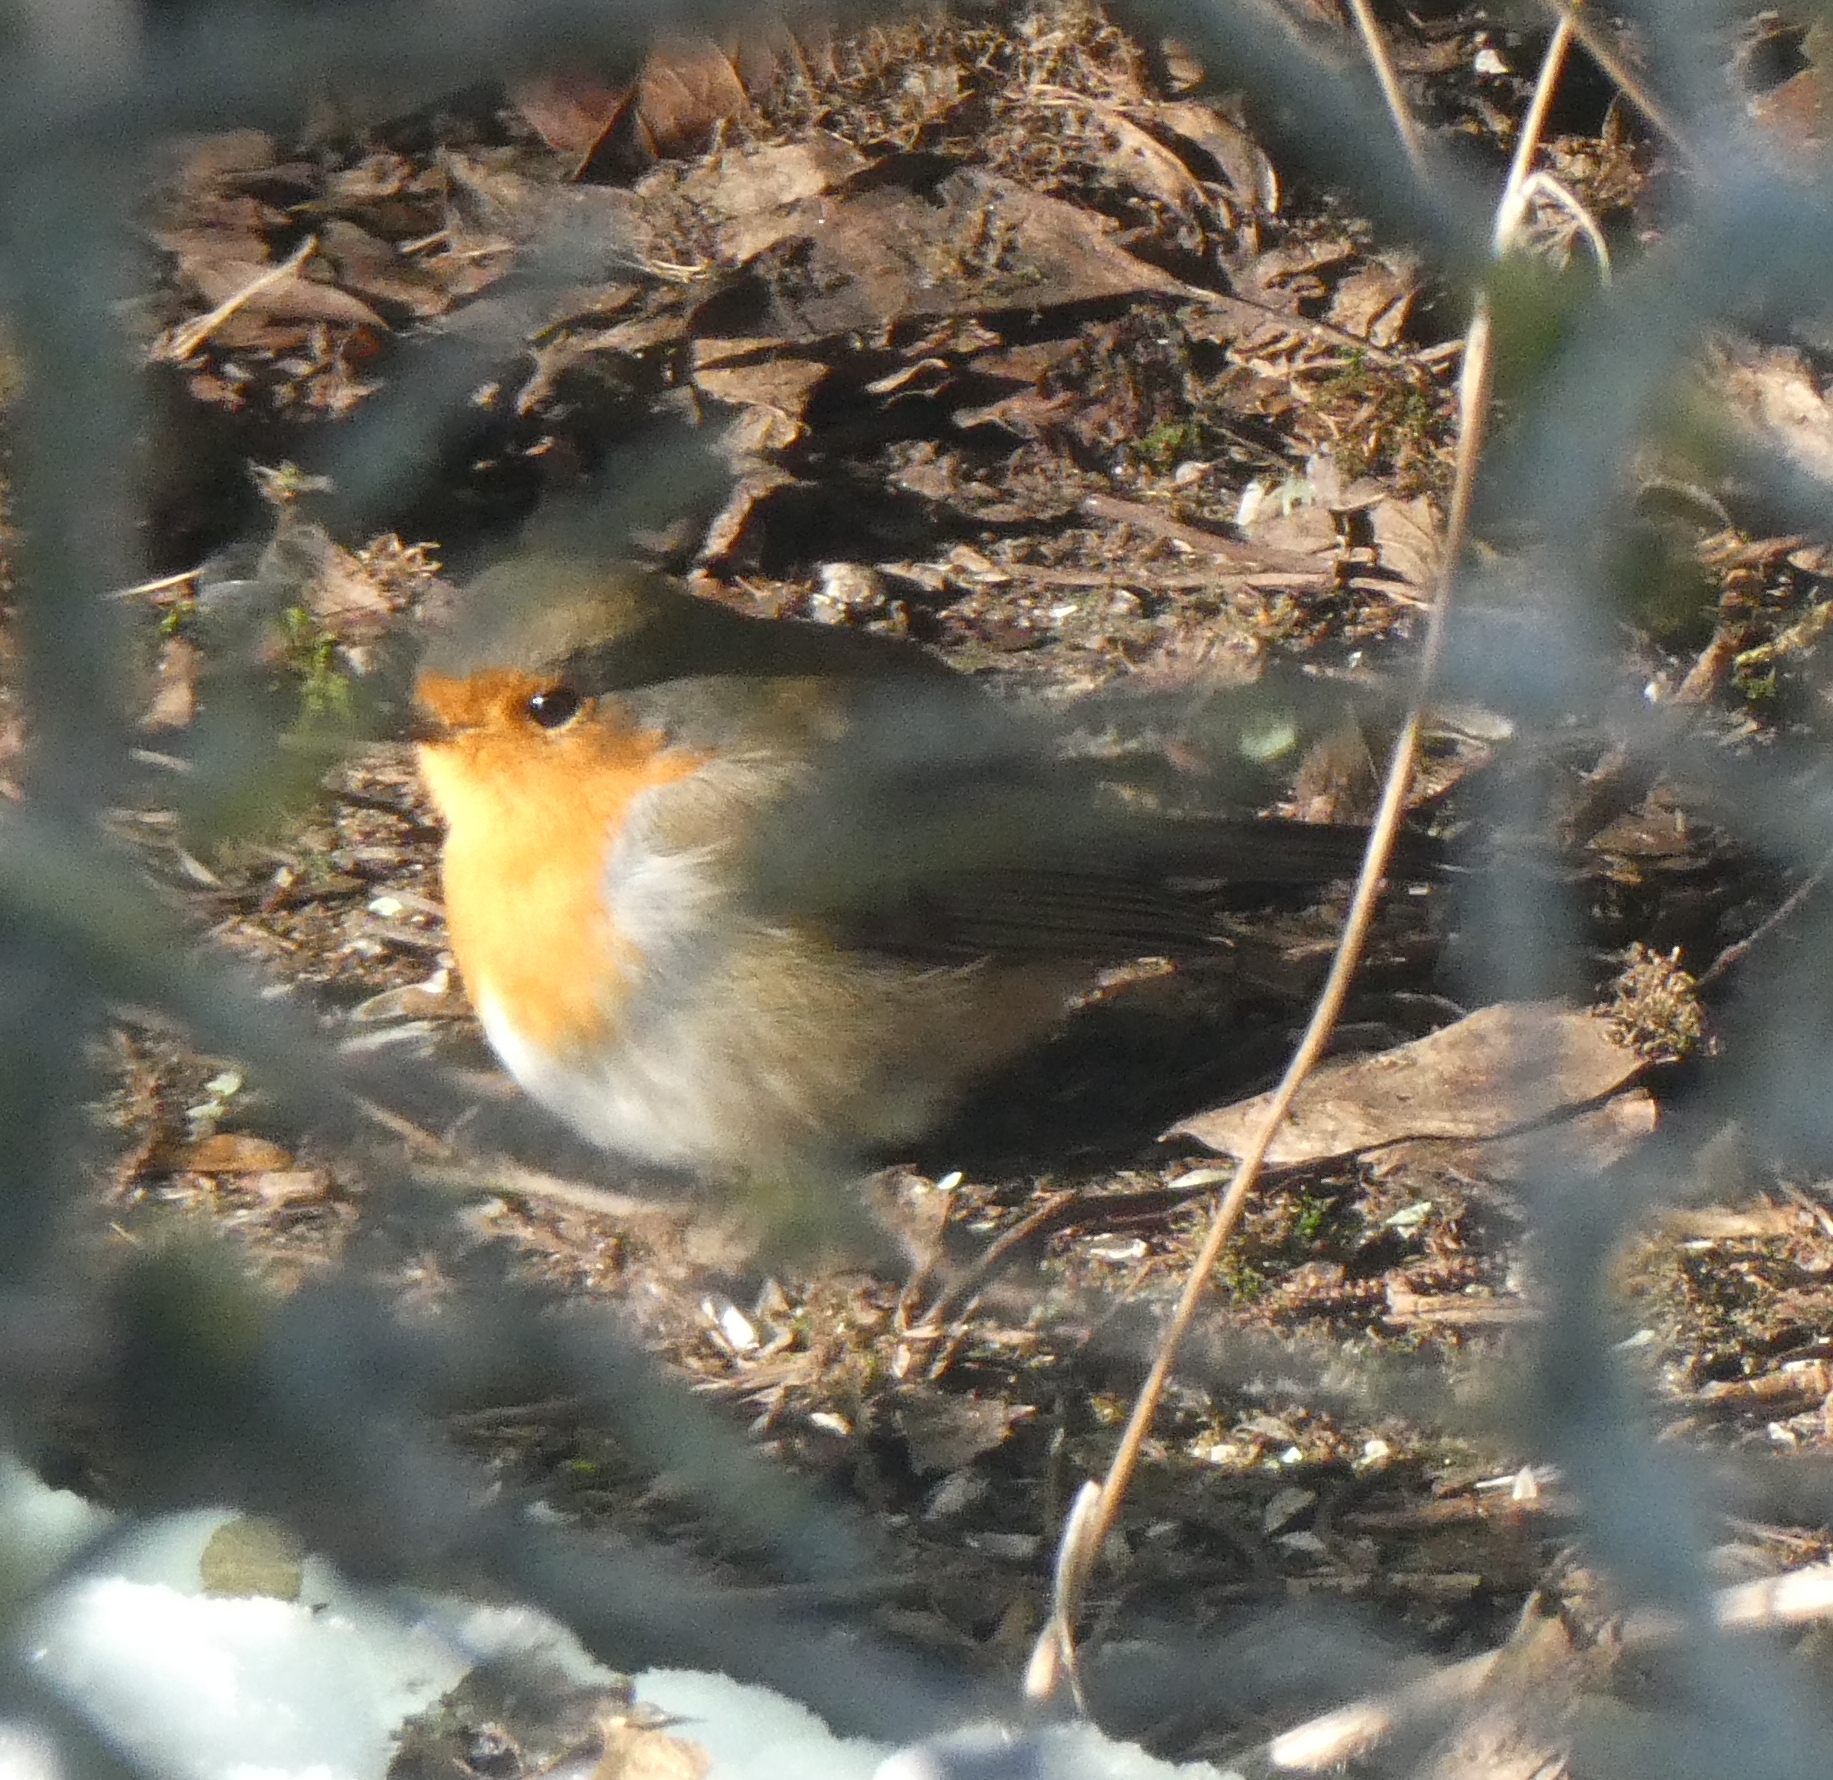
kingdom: Animalia
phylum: Chordata
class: Aves
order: Passeriformes
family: Muscicapidae
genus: Erithacus
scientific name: Erithacus rubecula
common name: European robin
